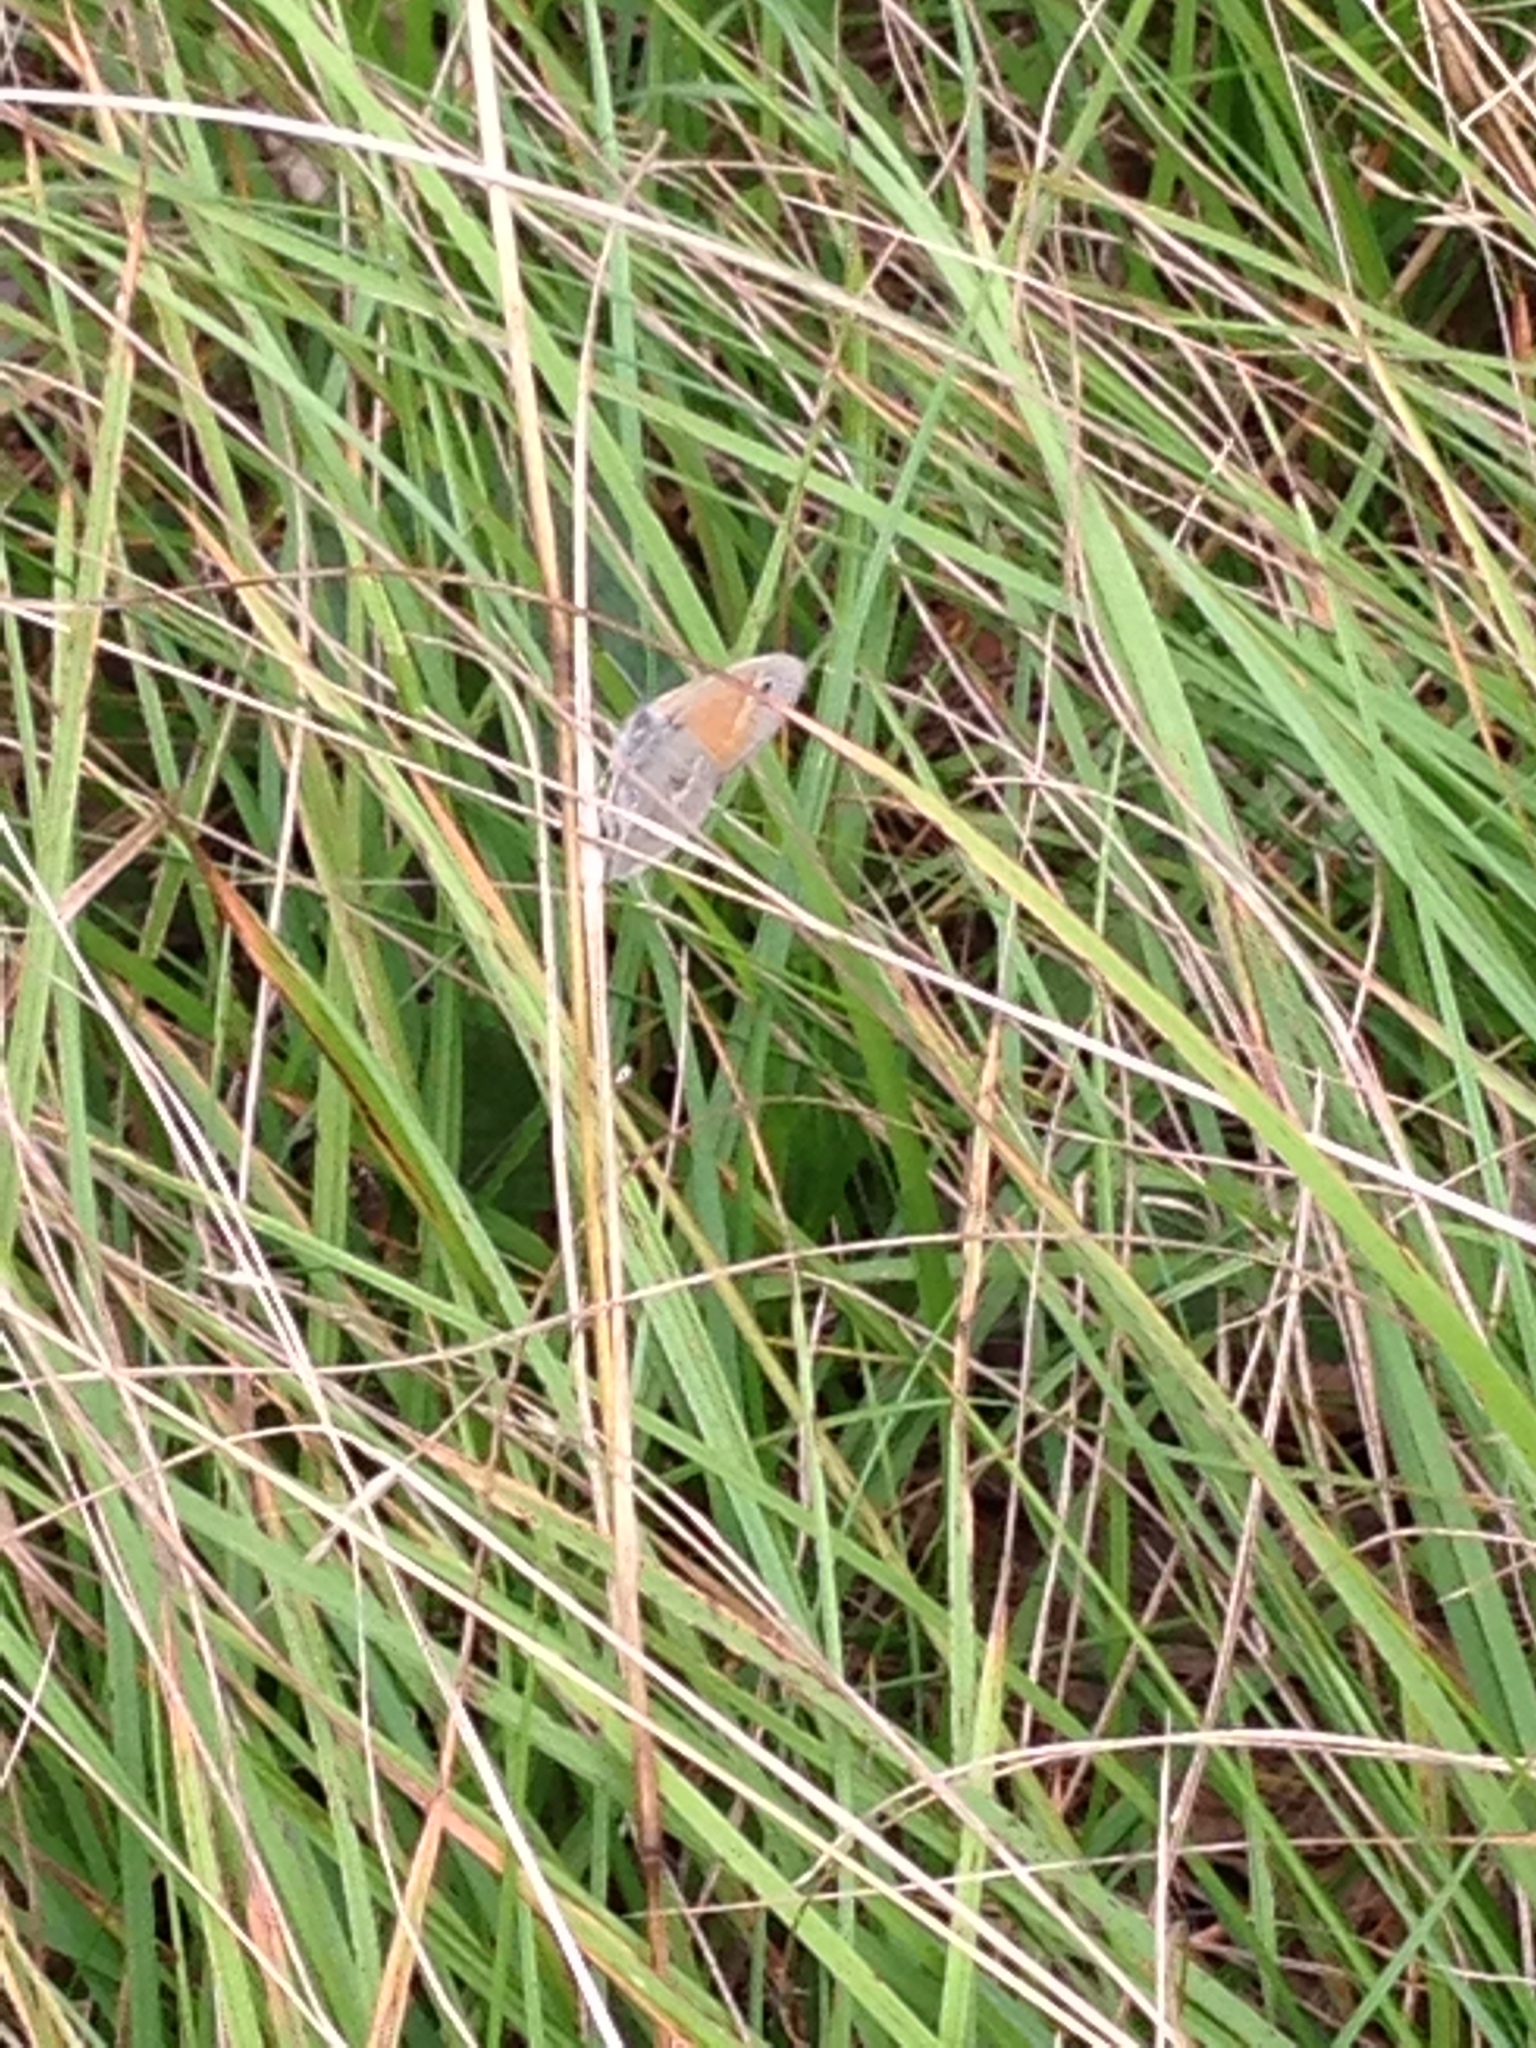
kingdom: Animalia
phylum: Arthropoda
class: Insecta
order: Lepidoptera
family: Nymphalidae
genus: Coenonympha
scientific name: Coenonympha california
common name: Common ringlet
